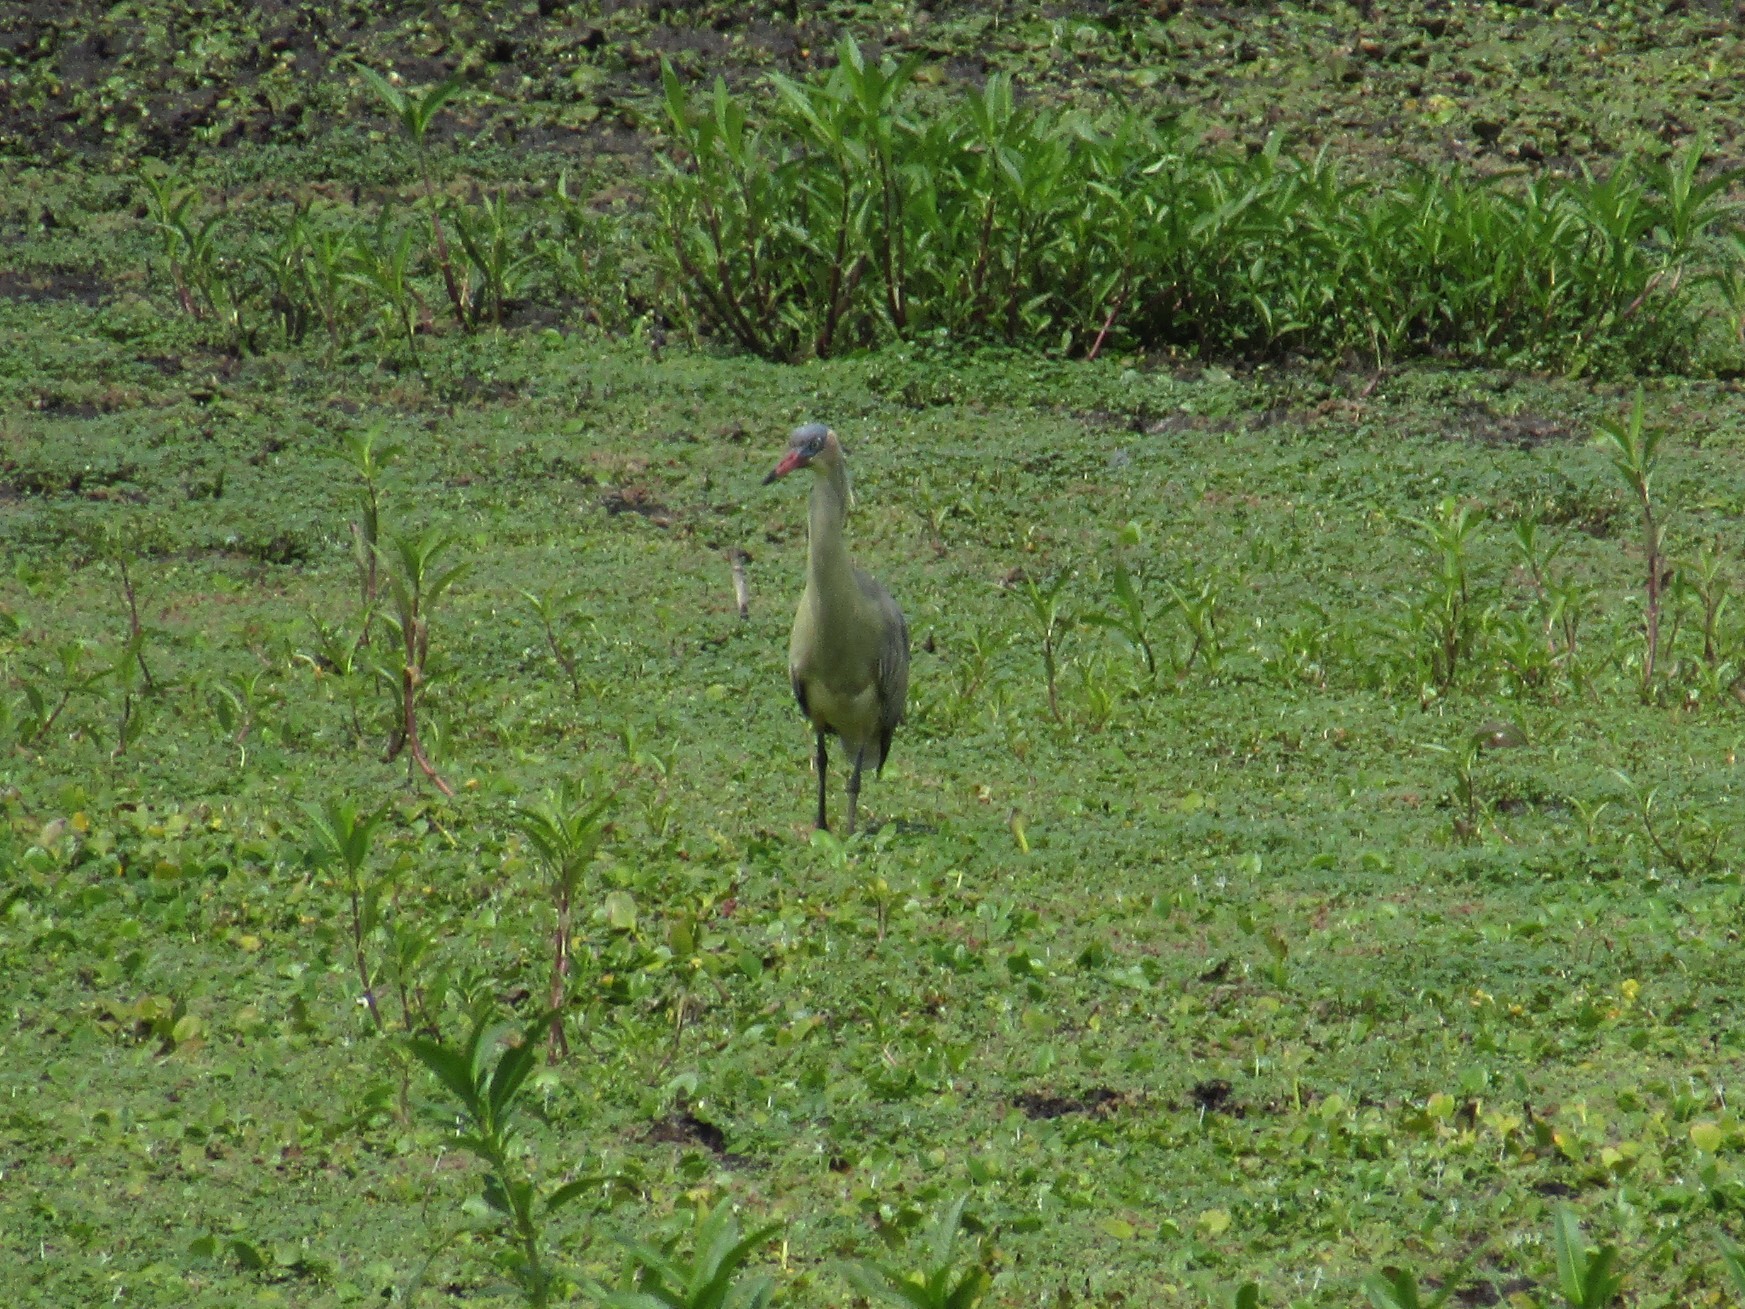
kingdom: Animalia
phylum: Chordata
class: Aves
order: Pelecaniformes
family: Ardeidae
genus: Syrigma
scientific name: Syrigma sibilatrix
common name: Whistling heron
